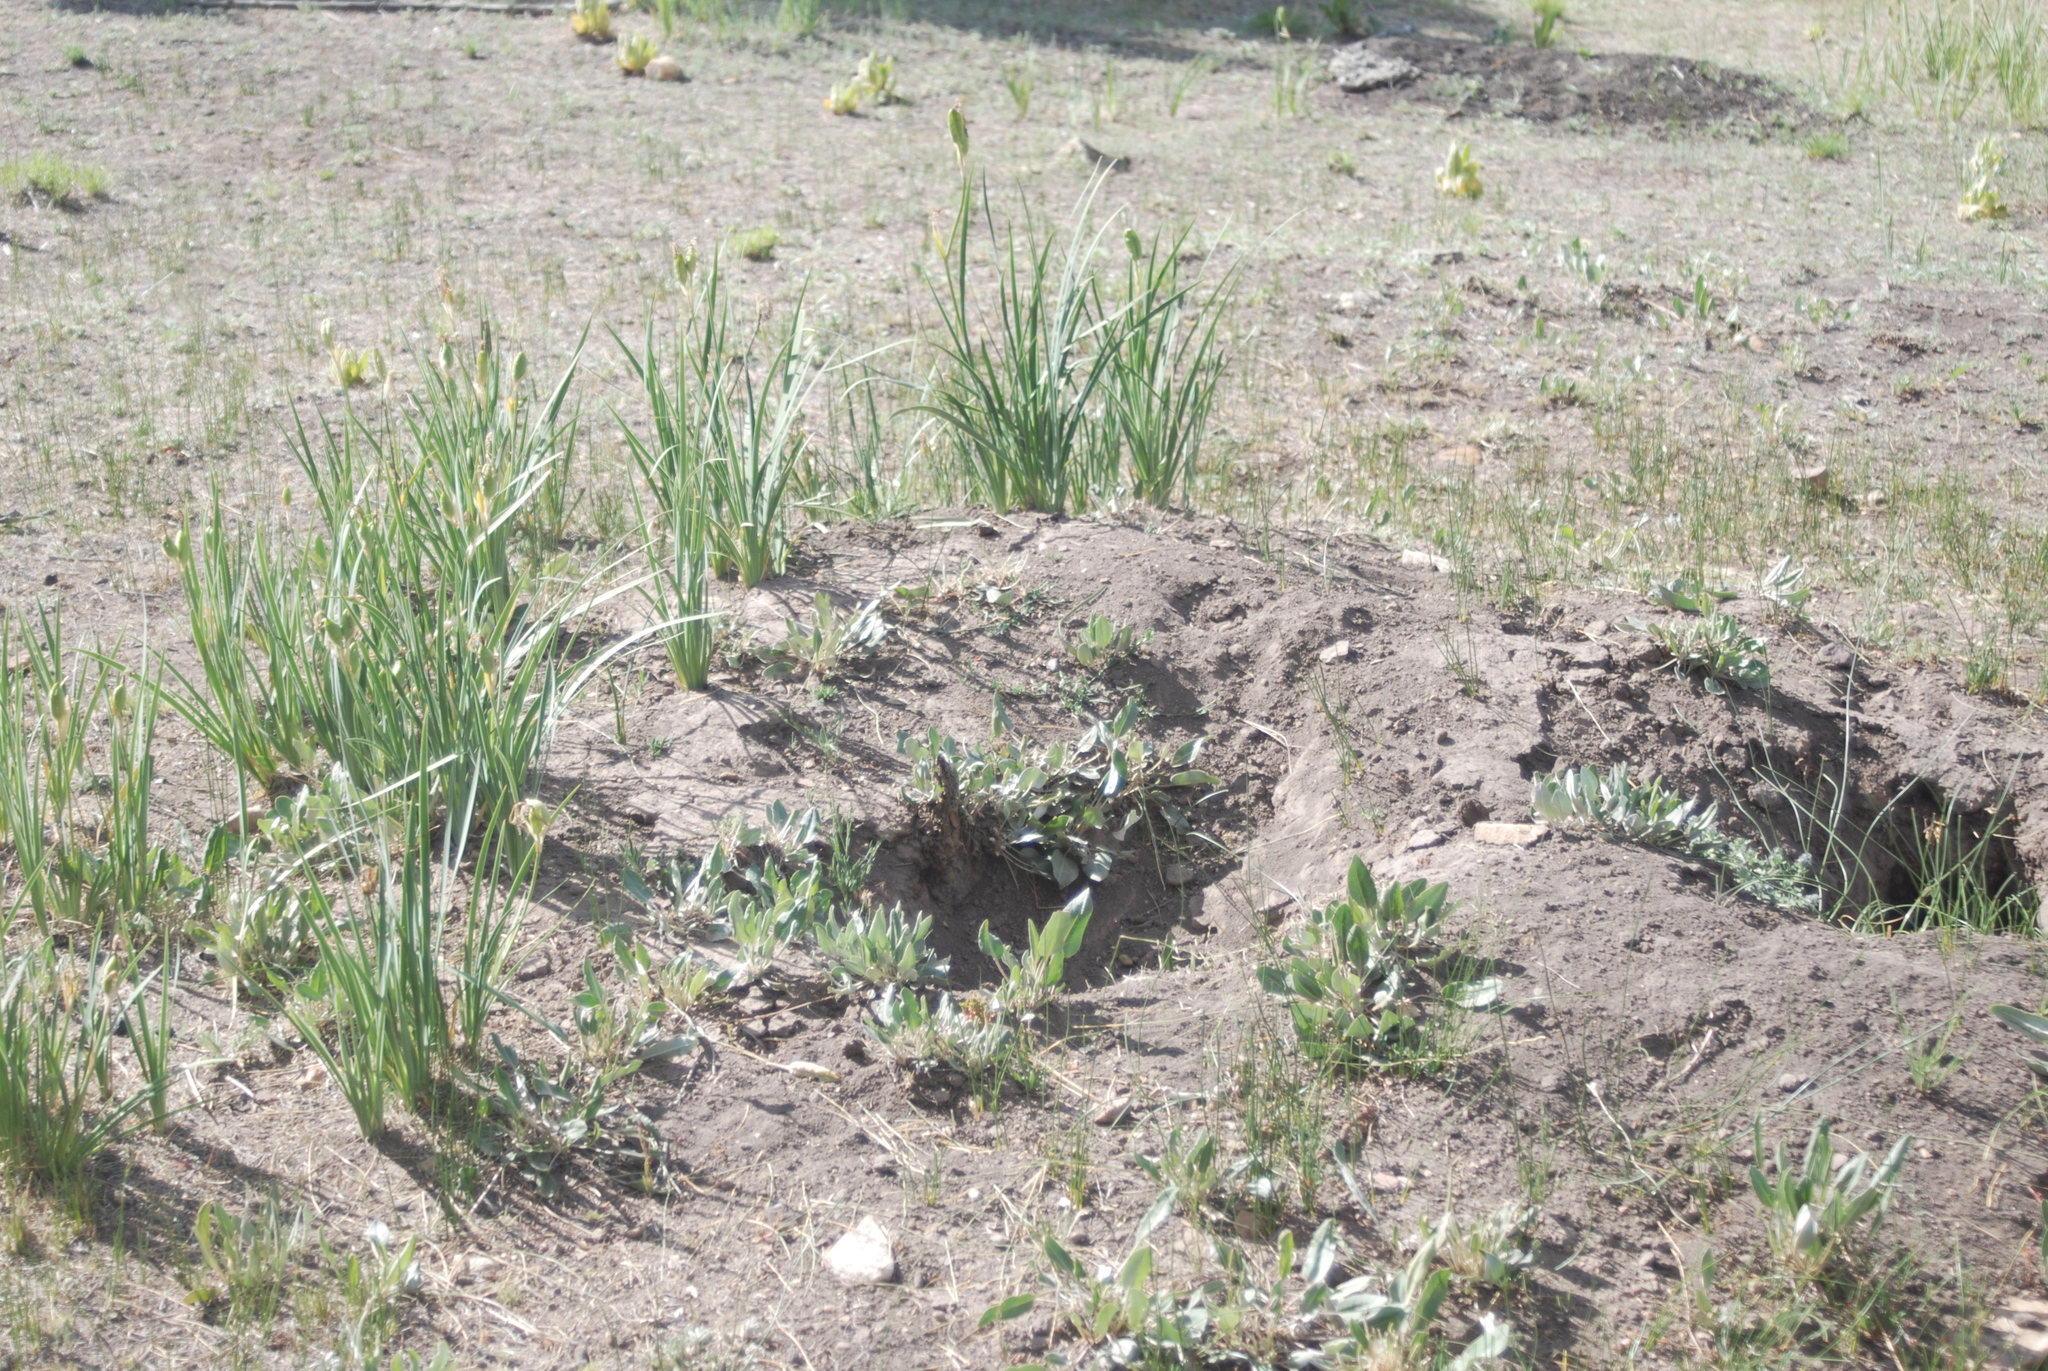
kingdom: Animalia
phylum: Chordata
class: Mammalia
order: Rodentia
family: Sciuridae
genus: Cynomys
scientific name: Cynomys gunnisoni
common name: Gunnison's prairie dog
